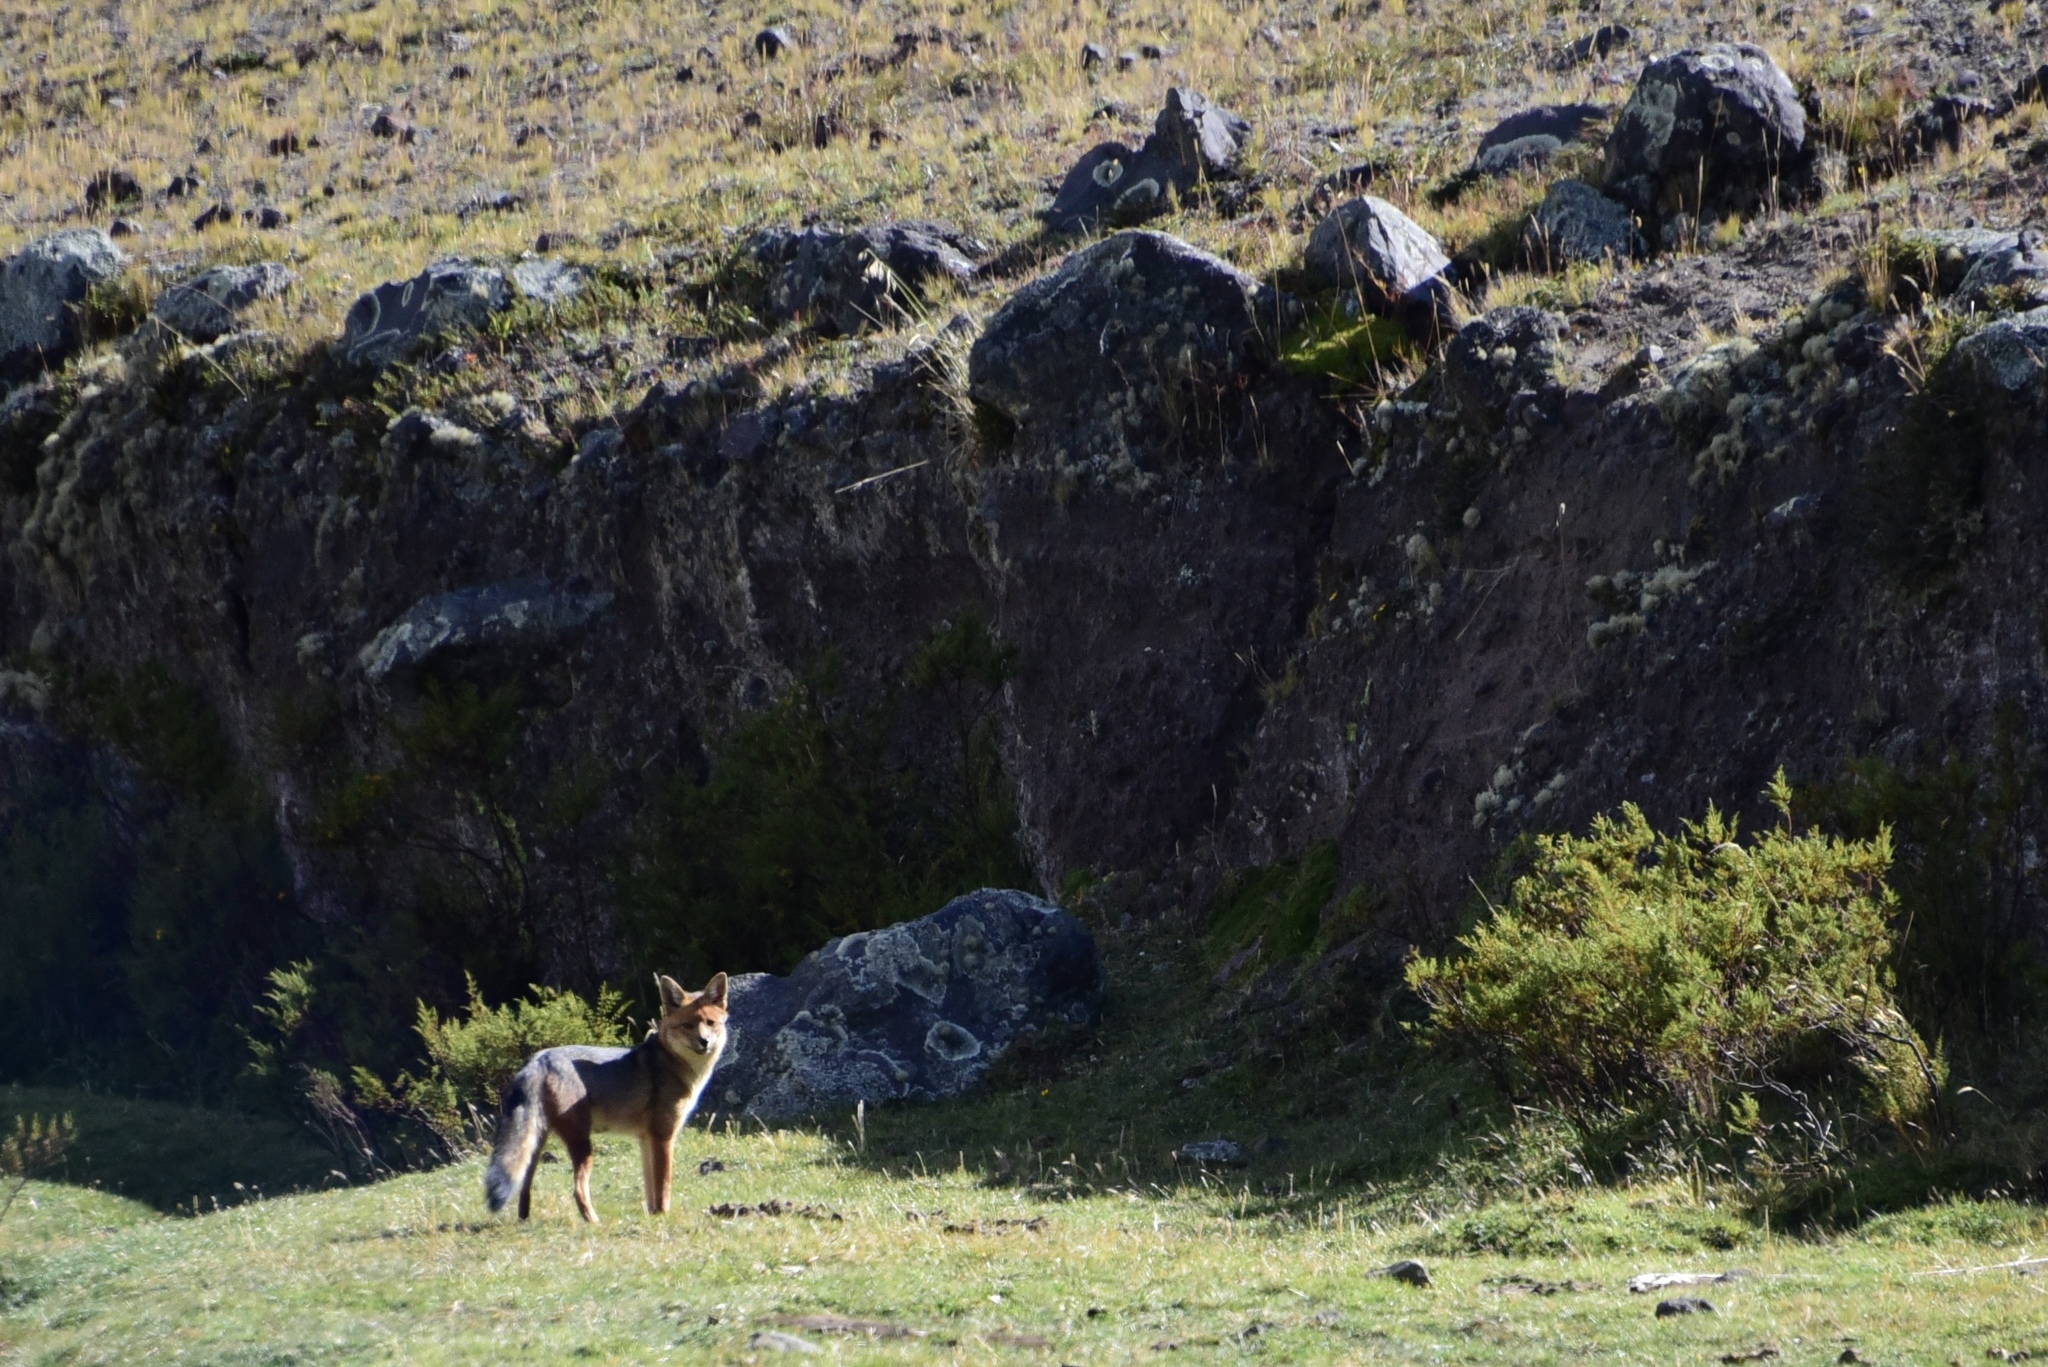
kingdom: Animalia
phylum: Chordata
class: Mammalia
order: Carnivora
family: Canidae
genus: Lycalopex
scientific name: Lycalopex culpaeus
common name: Culpeo
